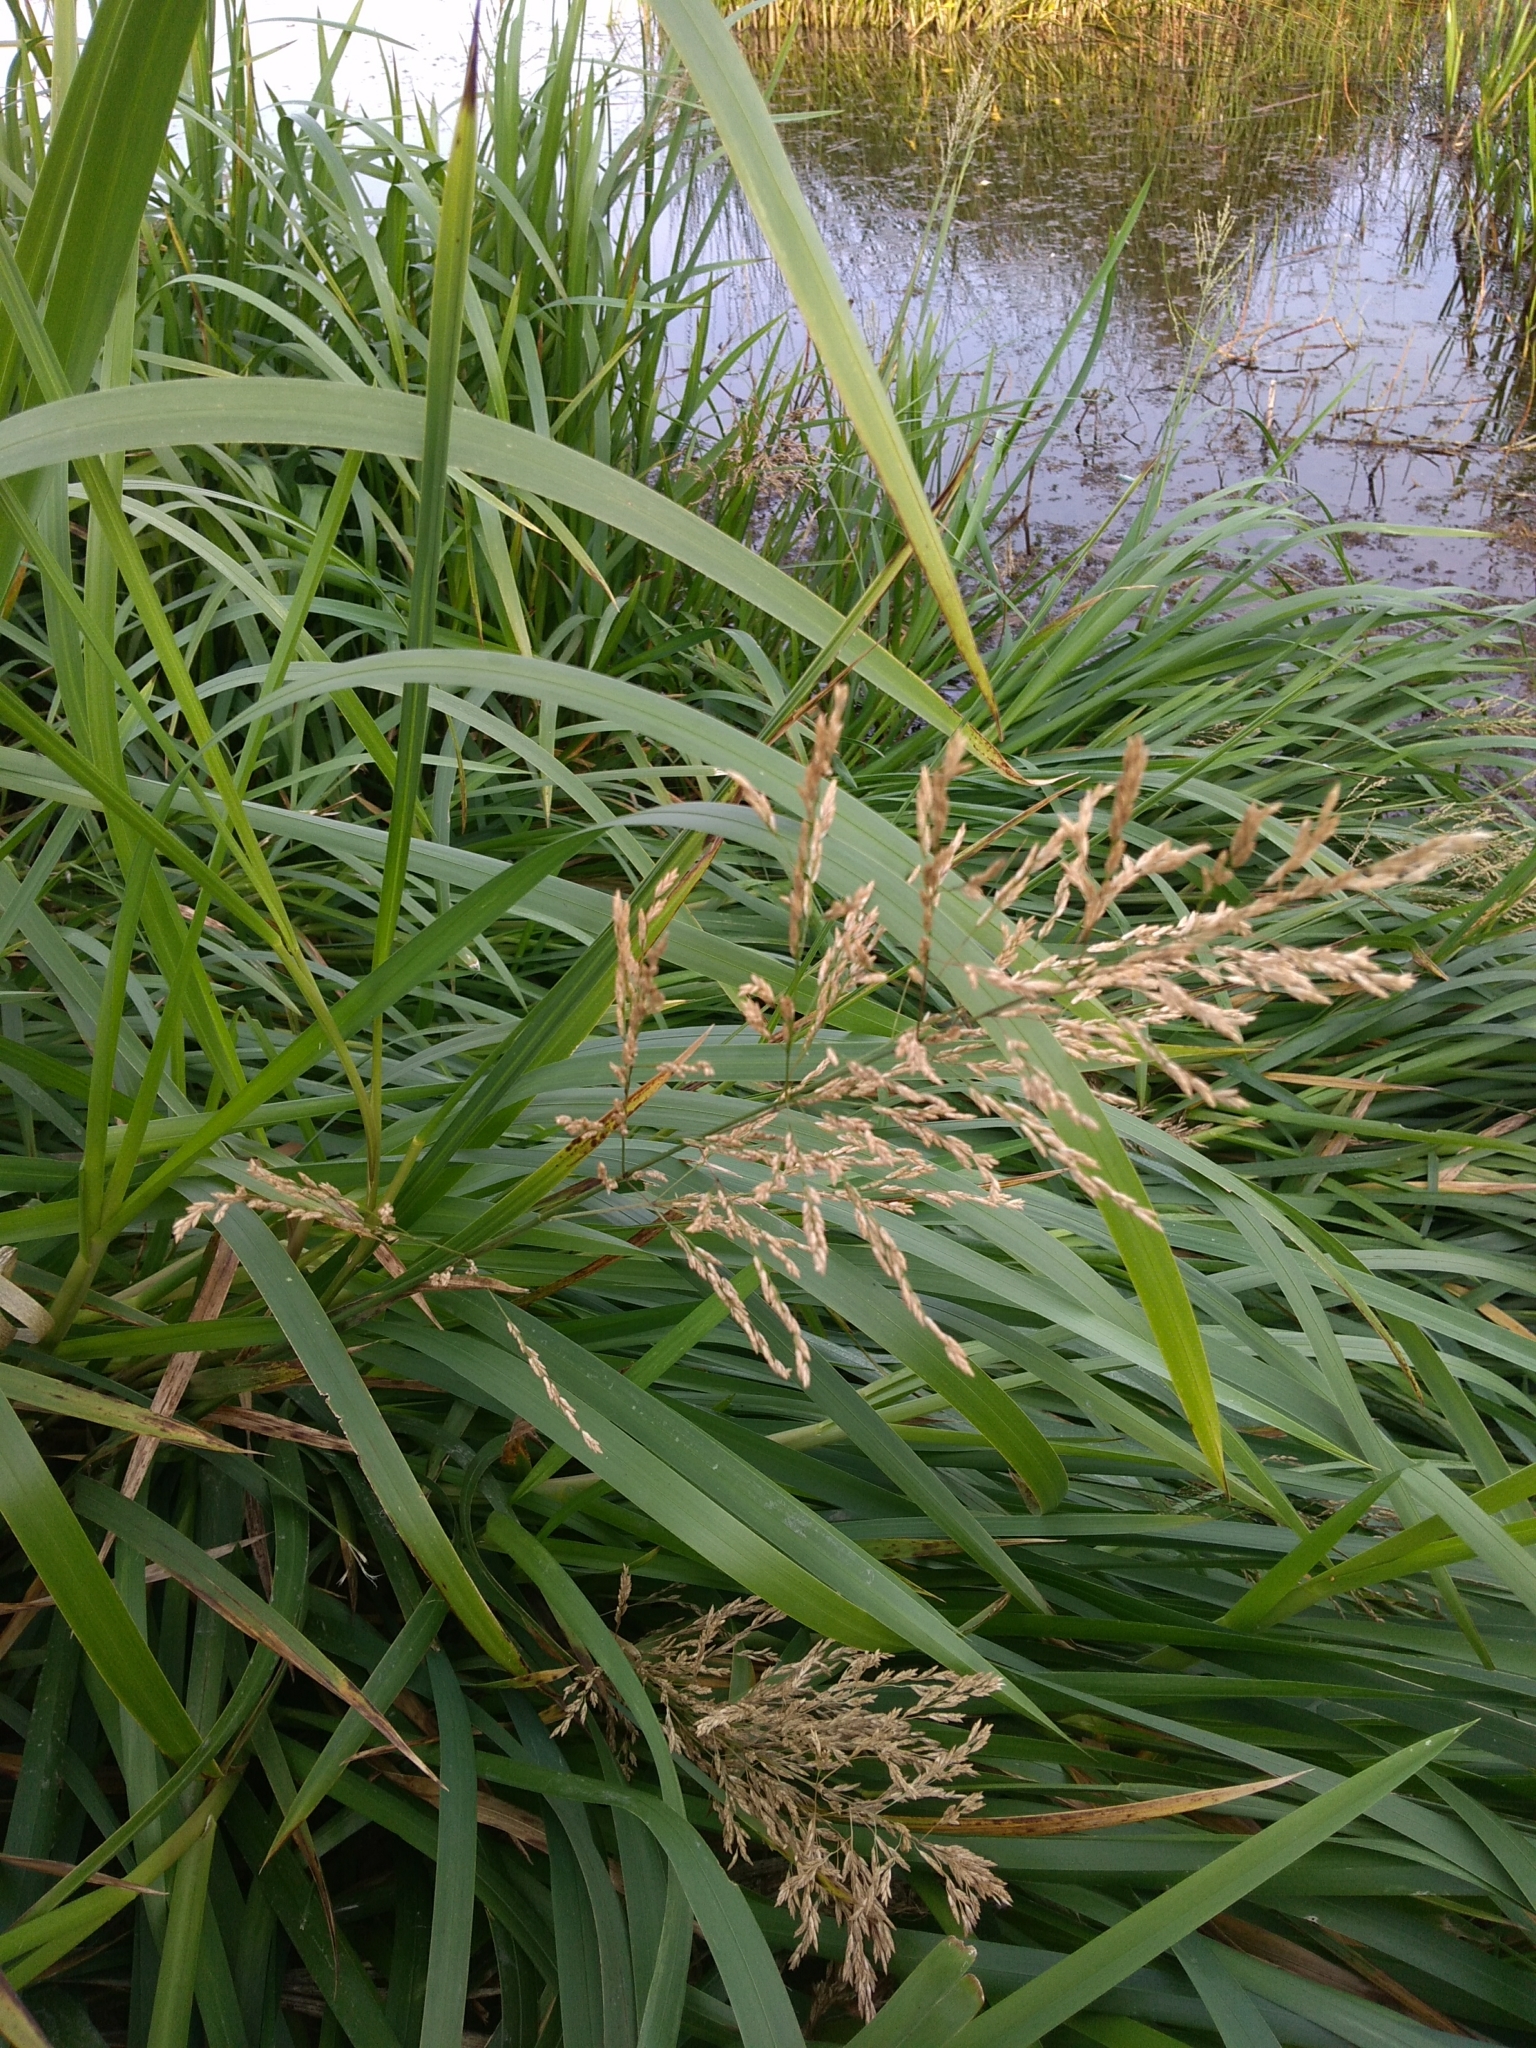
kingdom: Plantae
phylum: Tracheophyta
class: Liliopsida
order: Poales
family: Poaceae
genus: Glyceria
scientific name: Glyceria maxima
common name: Reed mannagrass
